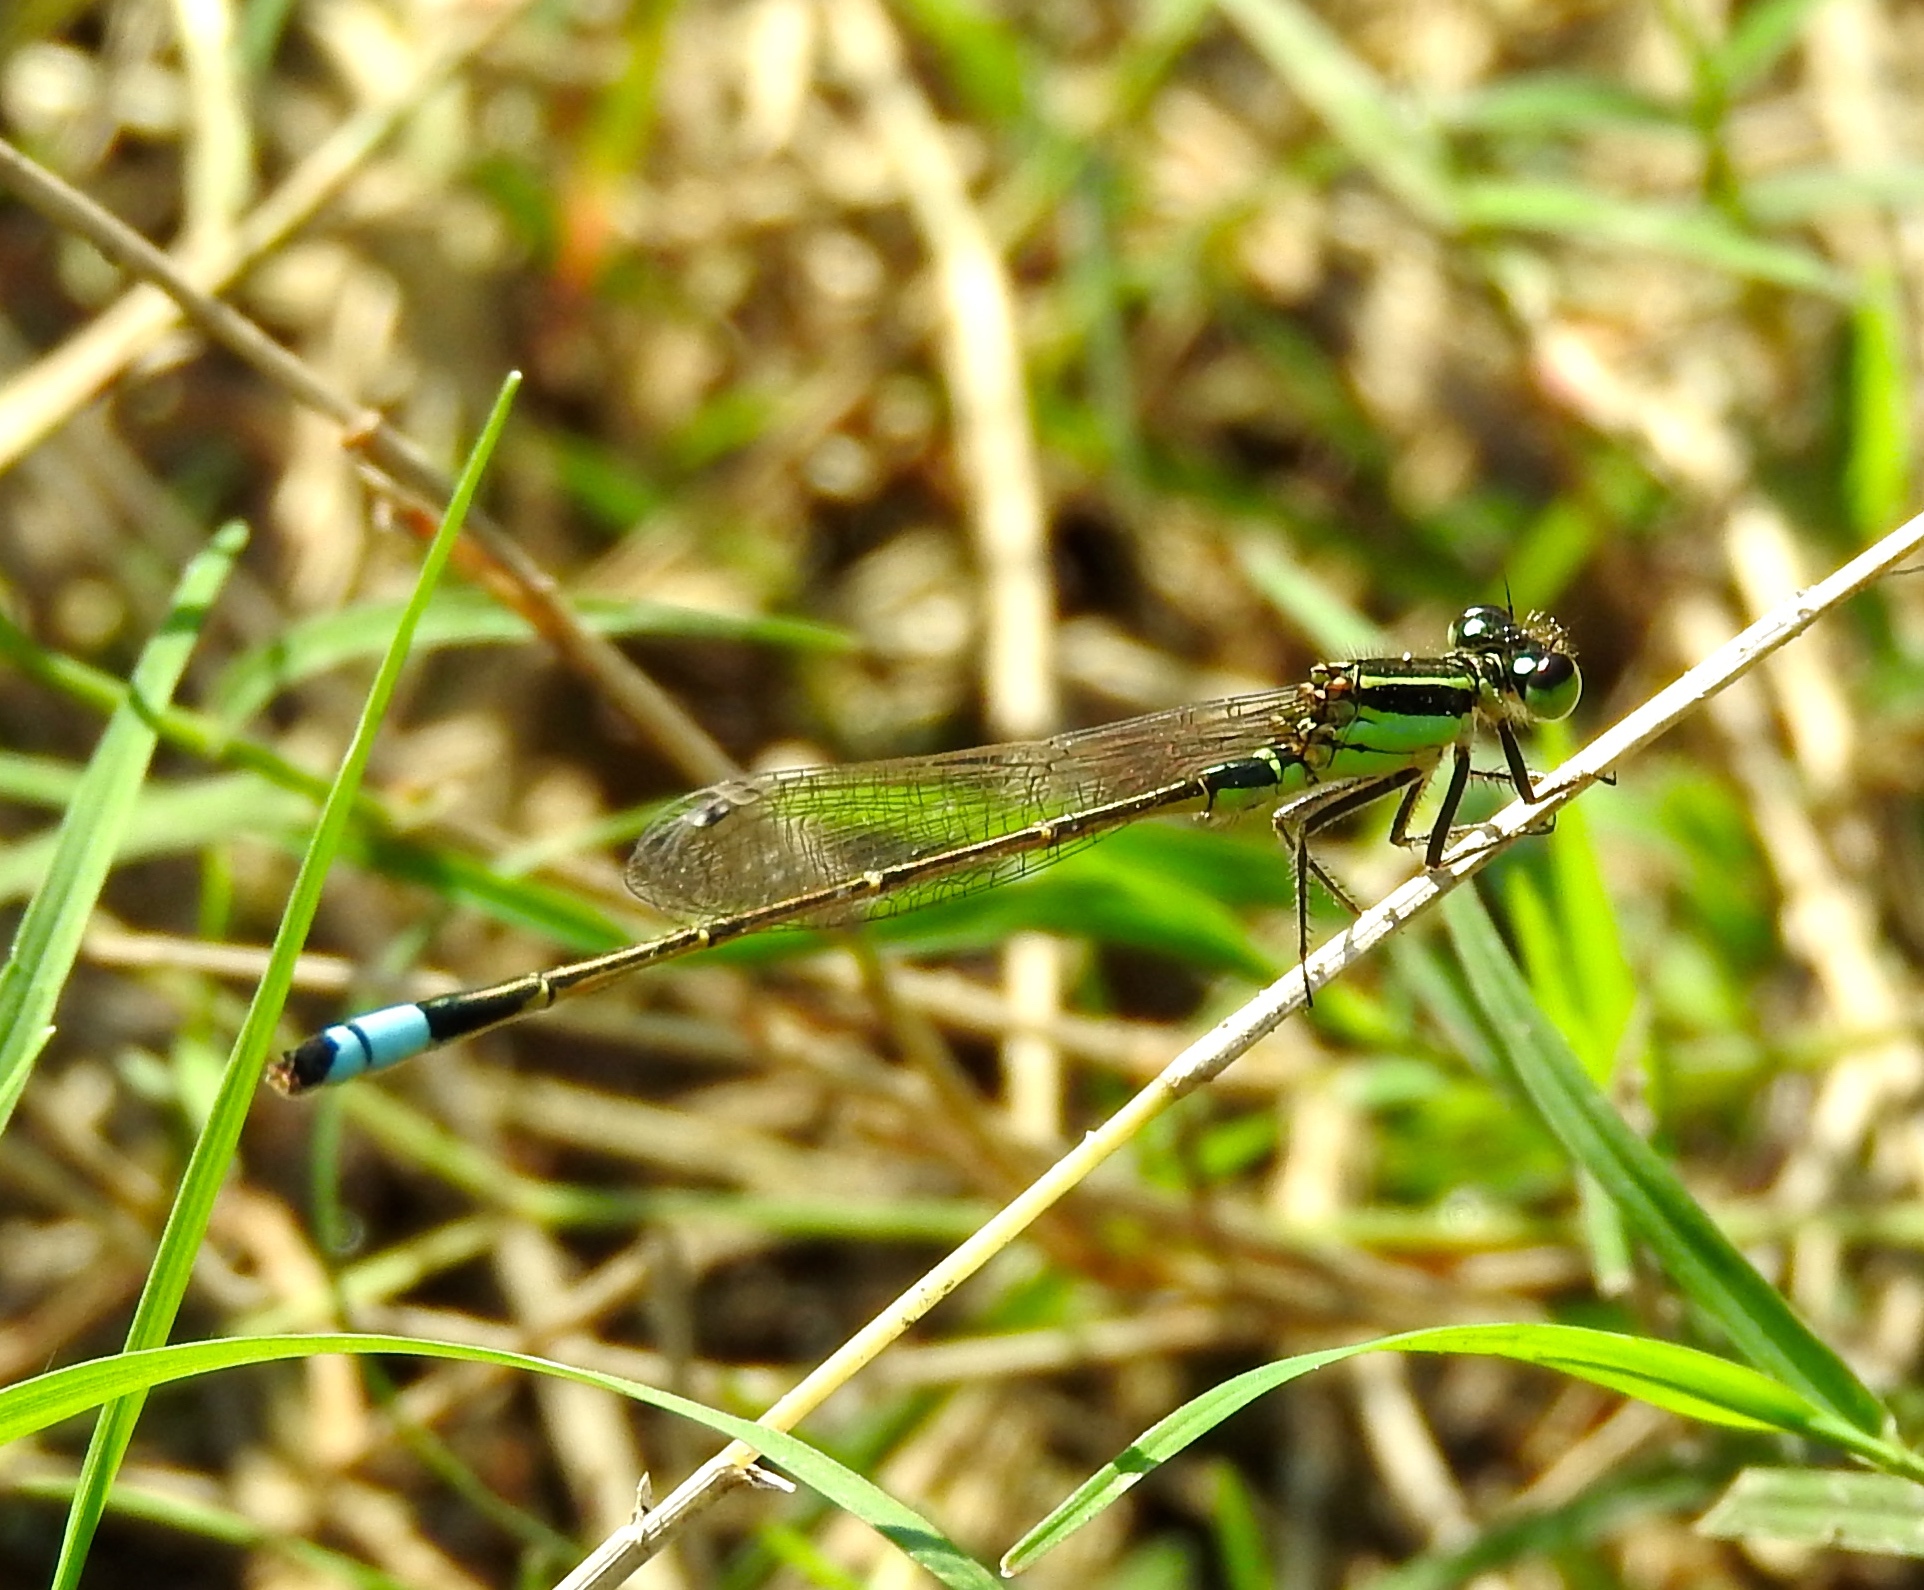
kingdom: Animalia
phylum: Arthropoda
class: Insecta
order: Odonata
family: Coenagrionidae
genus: Ischnura
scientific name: Ischnura ramburii
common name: Rambur's forktail
